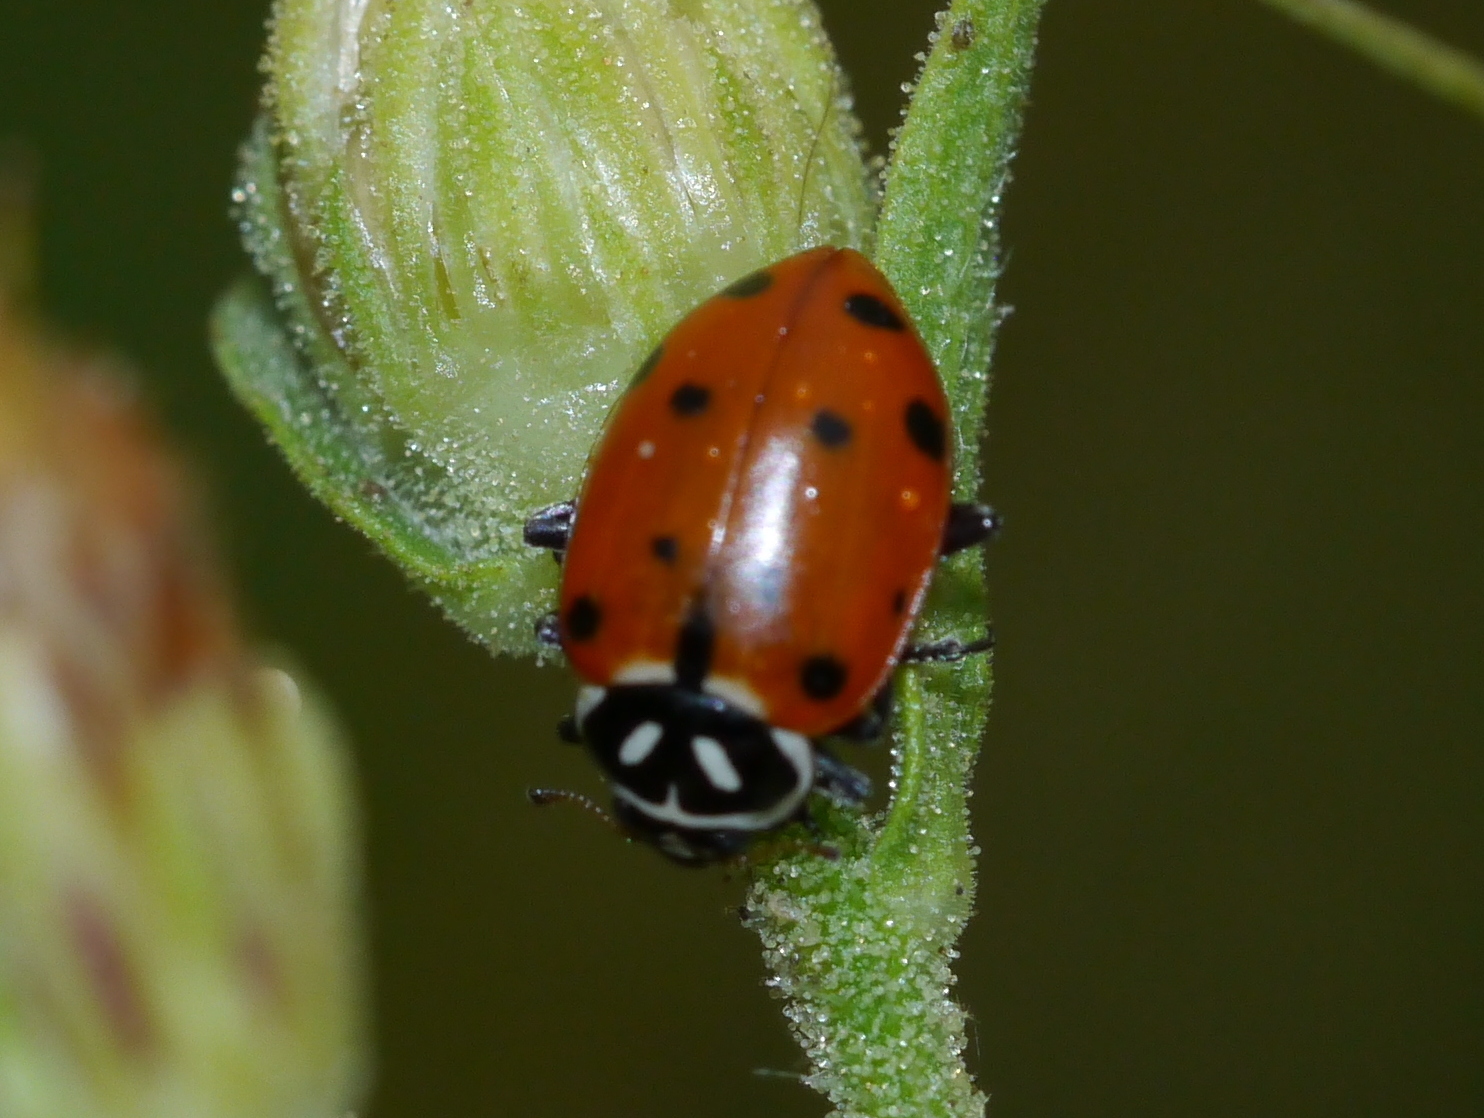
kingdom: Animalia
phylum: Arthropoda
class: Insecta
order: Coleoptera
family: Coccinellidae
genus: Hippodamia
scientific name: Hippodamia convergens
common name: Convergent lady beetle
